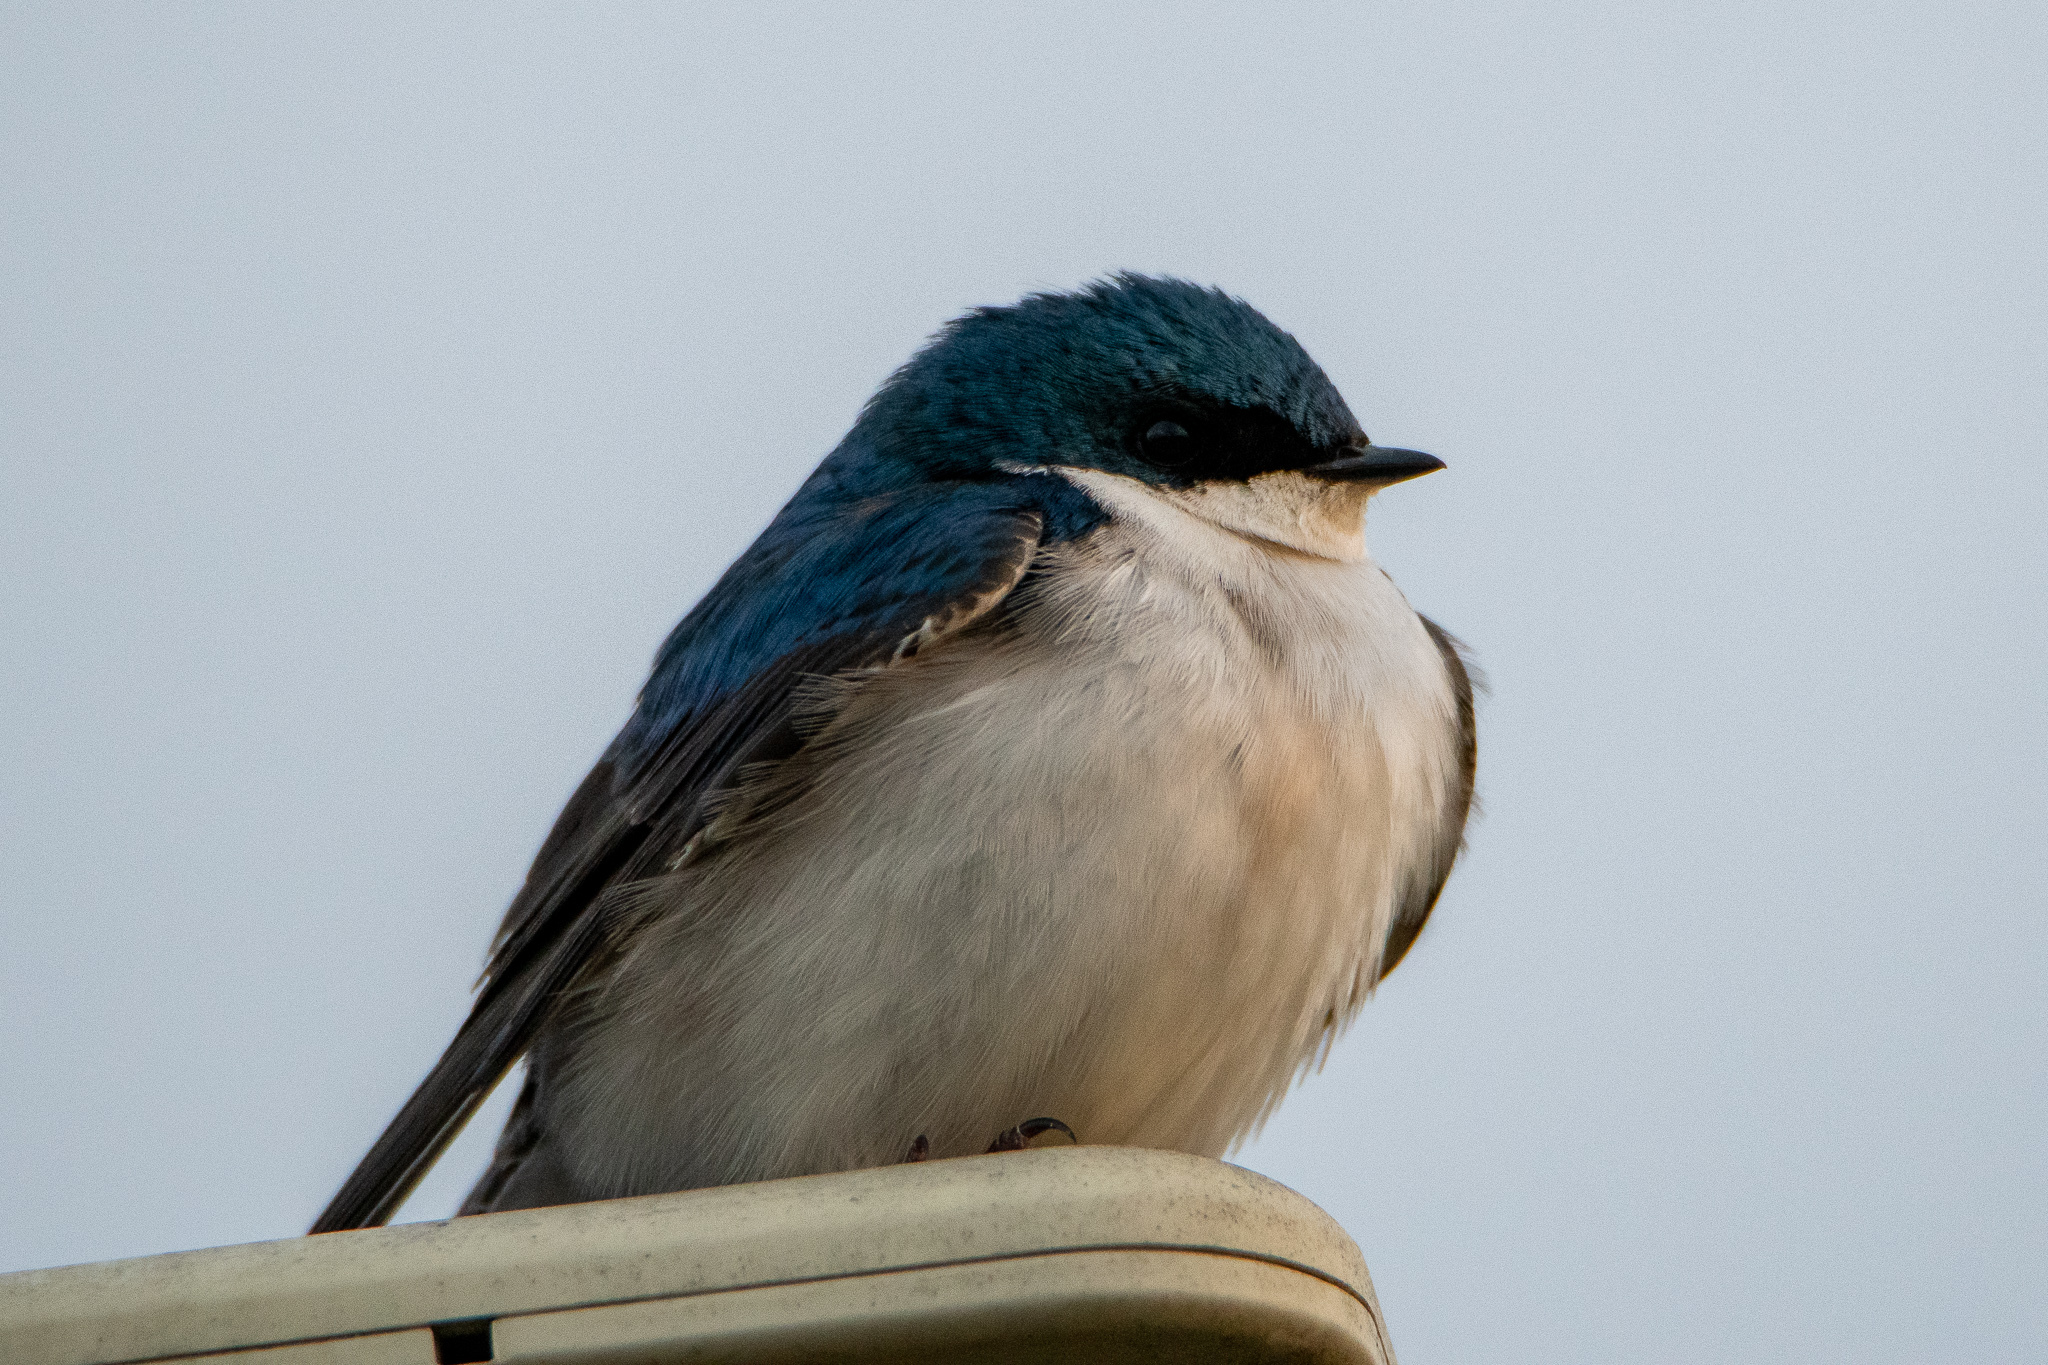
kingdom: Animalia
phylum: Chordata
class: Aves
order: Passeriformes
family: Hirundinidae
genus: Tachycineta
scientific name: Tachycineta bicolor
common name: Tree swallow
